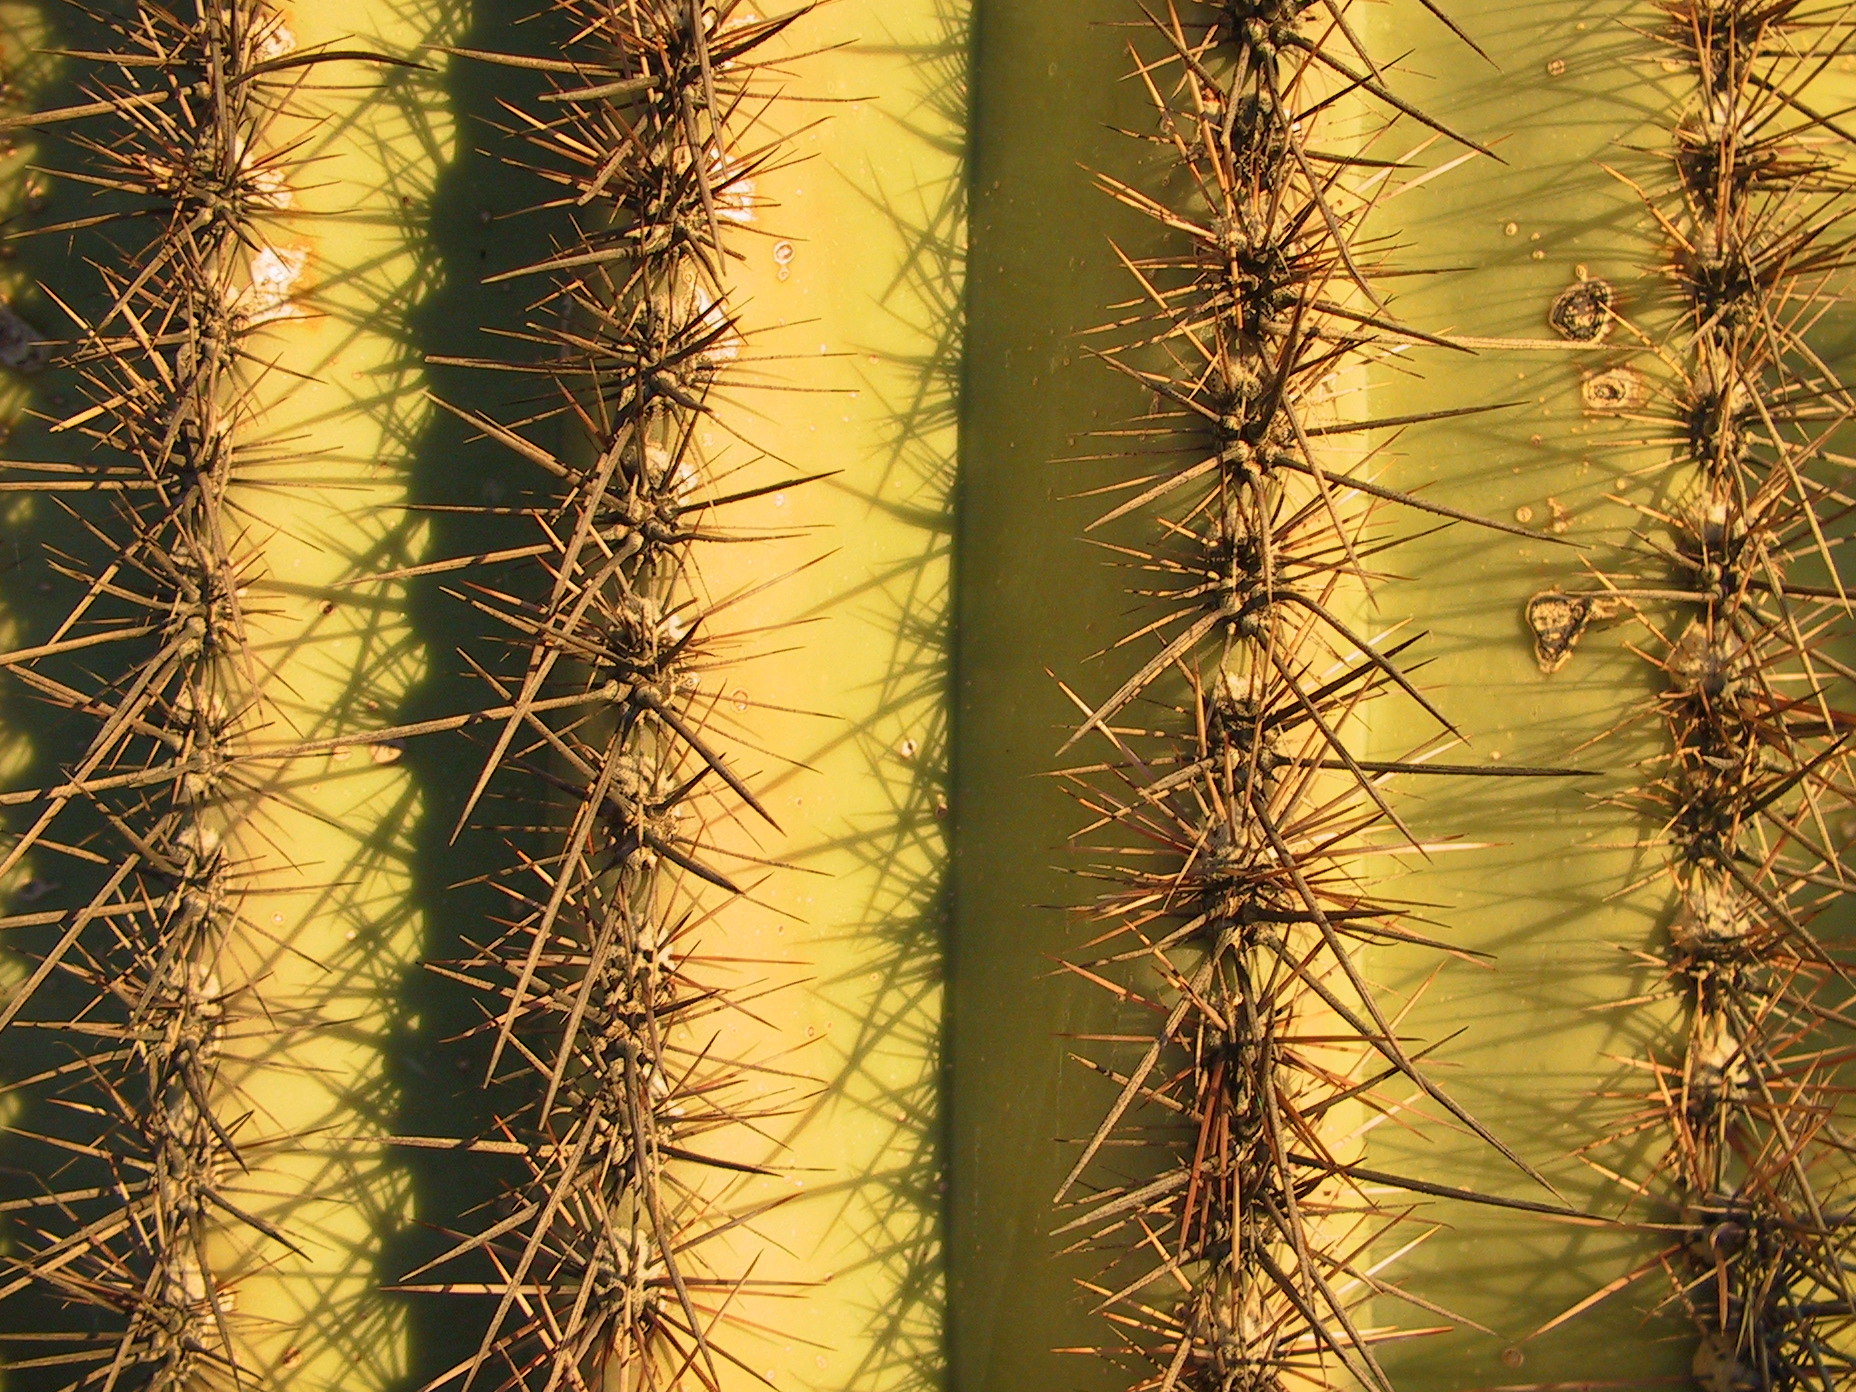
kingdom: Plantae
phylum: Tracheophyta
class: Magnoliopsida
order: Caryophyllales
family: Cactaceae
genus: Carnegiea
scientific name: Carnegiea gigantea
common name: Saguaro
